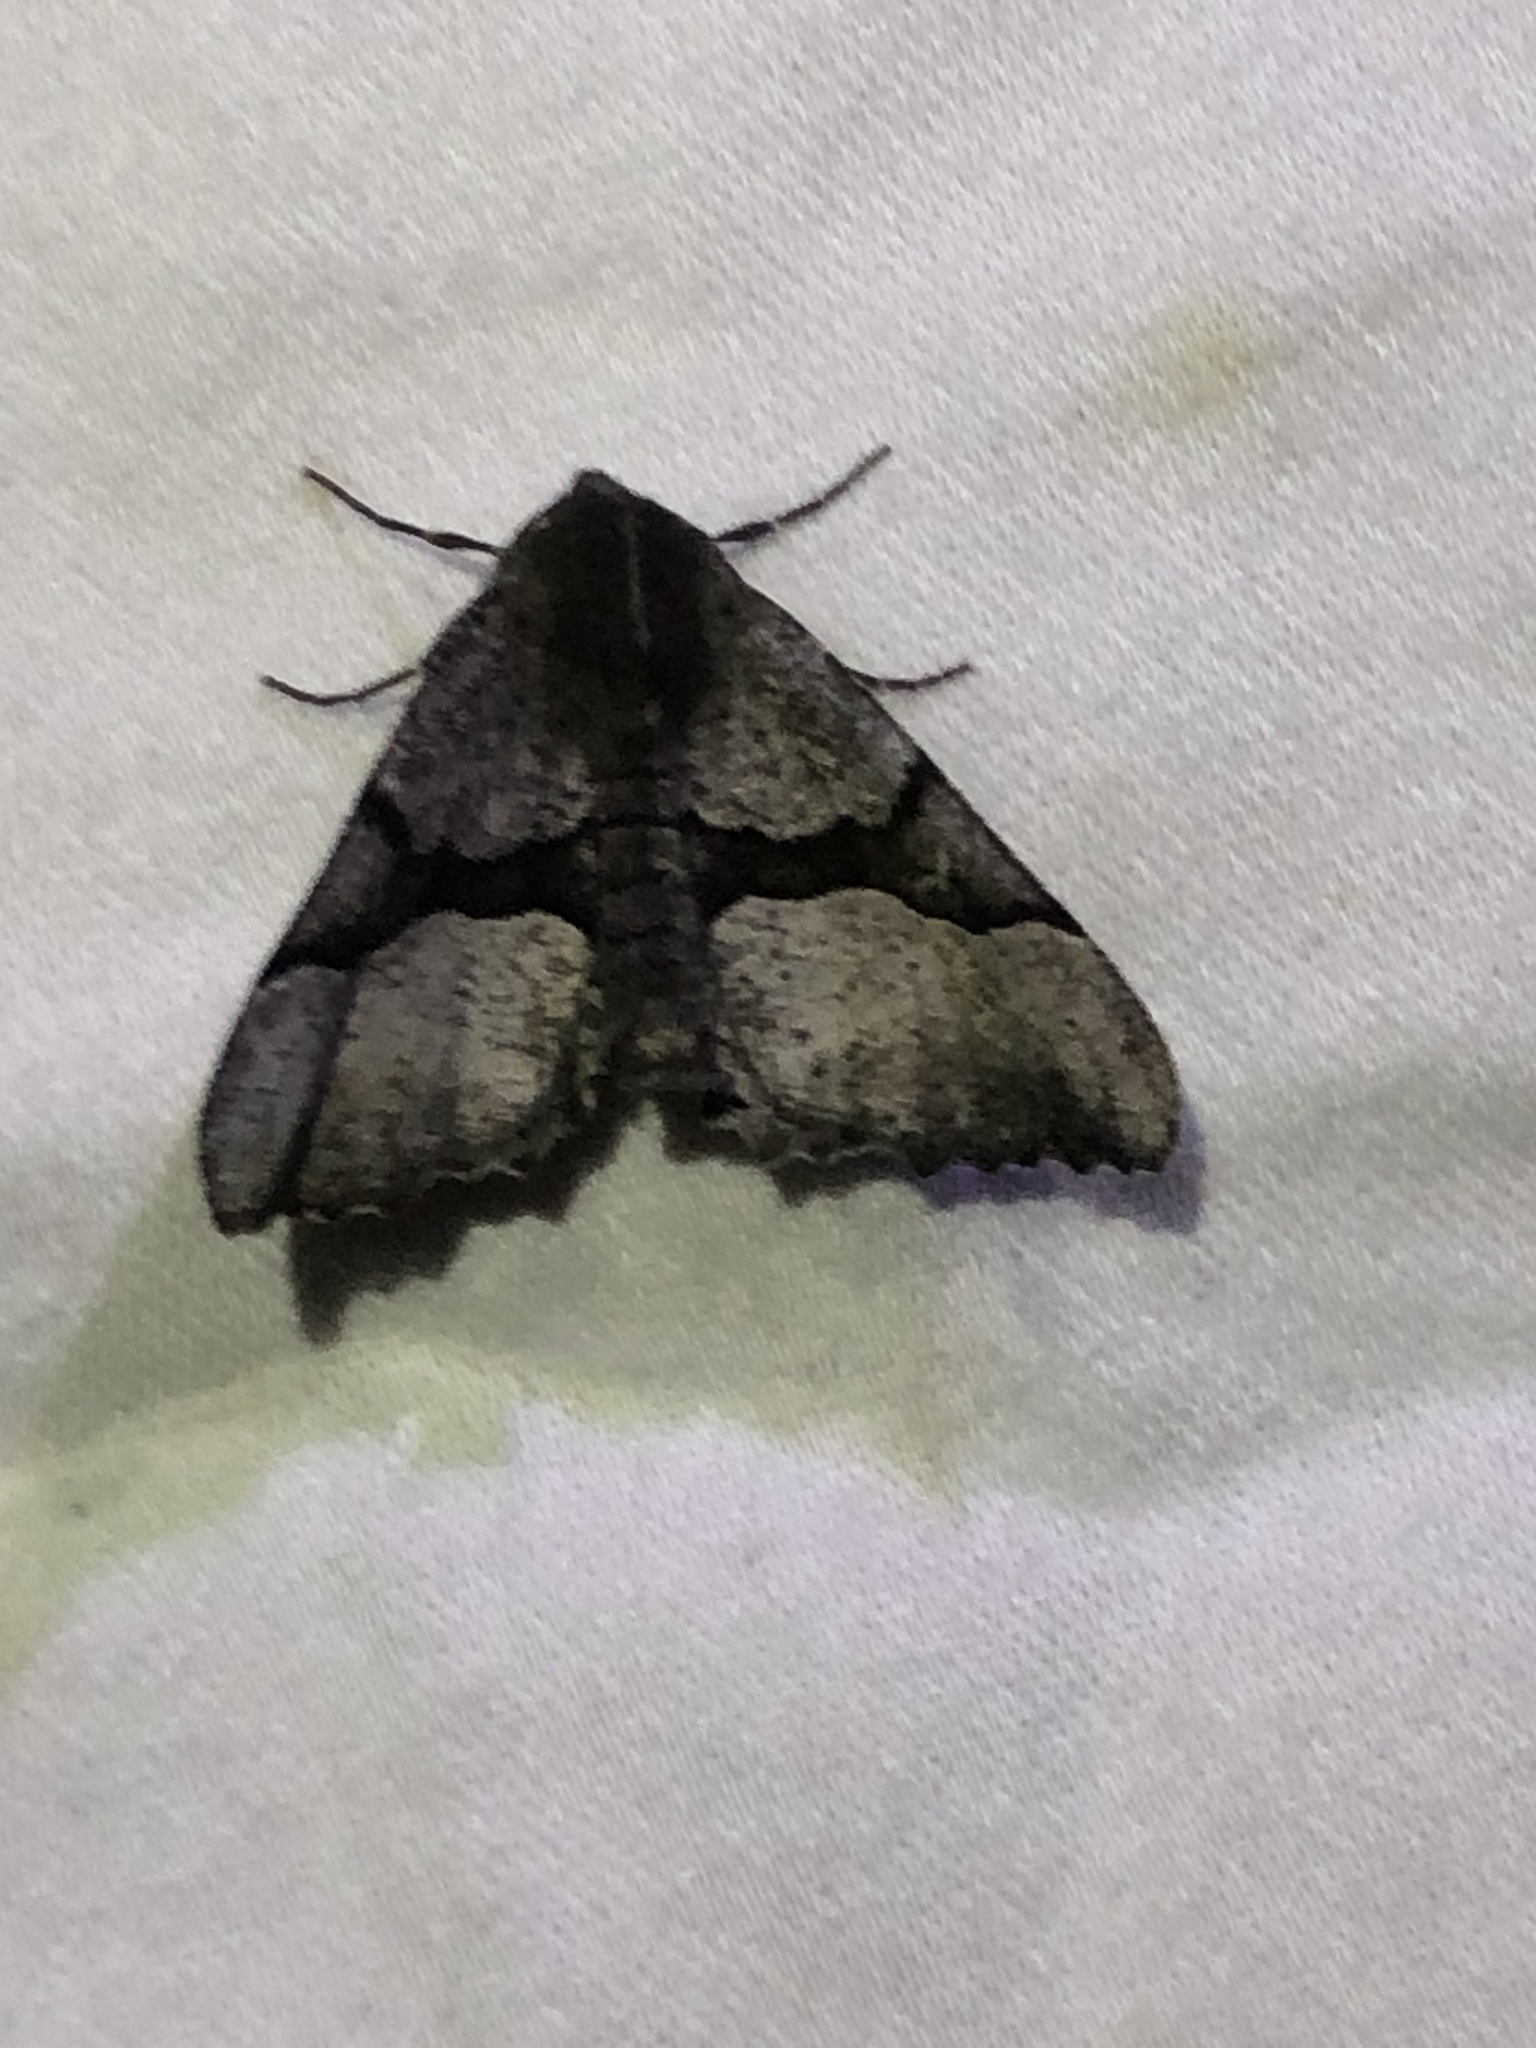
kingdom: Animalia
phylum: Arthropoda
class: Insecta
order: Lepidoptera
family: Geometridae
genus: Pero
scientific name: Pero behrensaria
